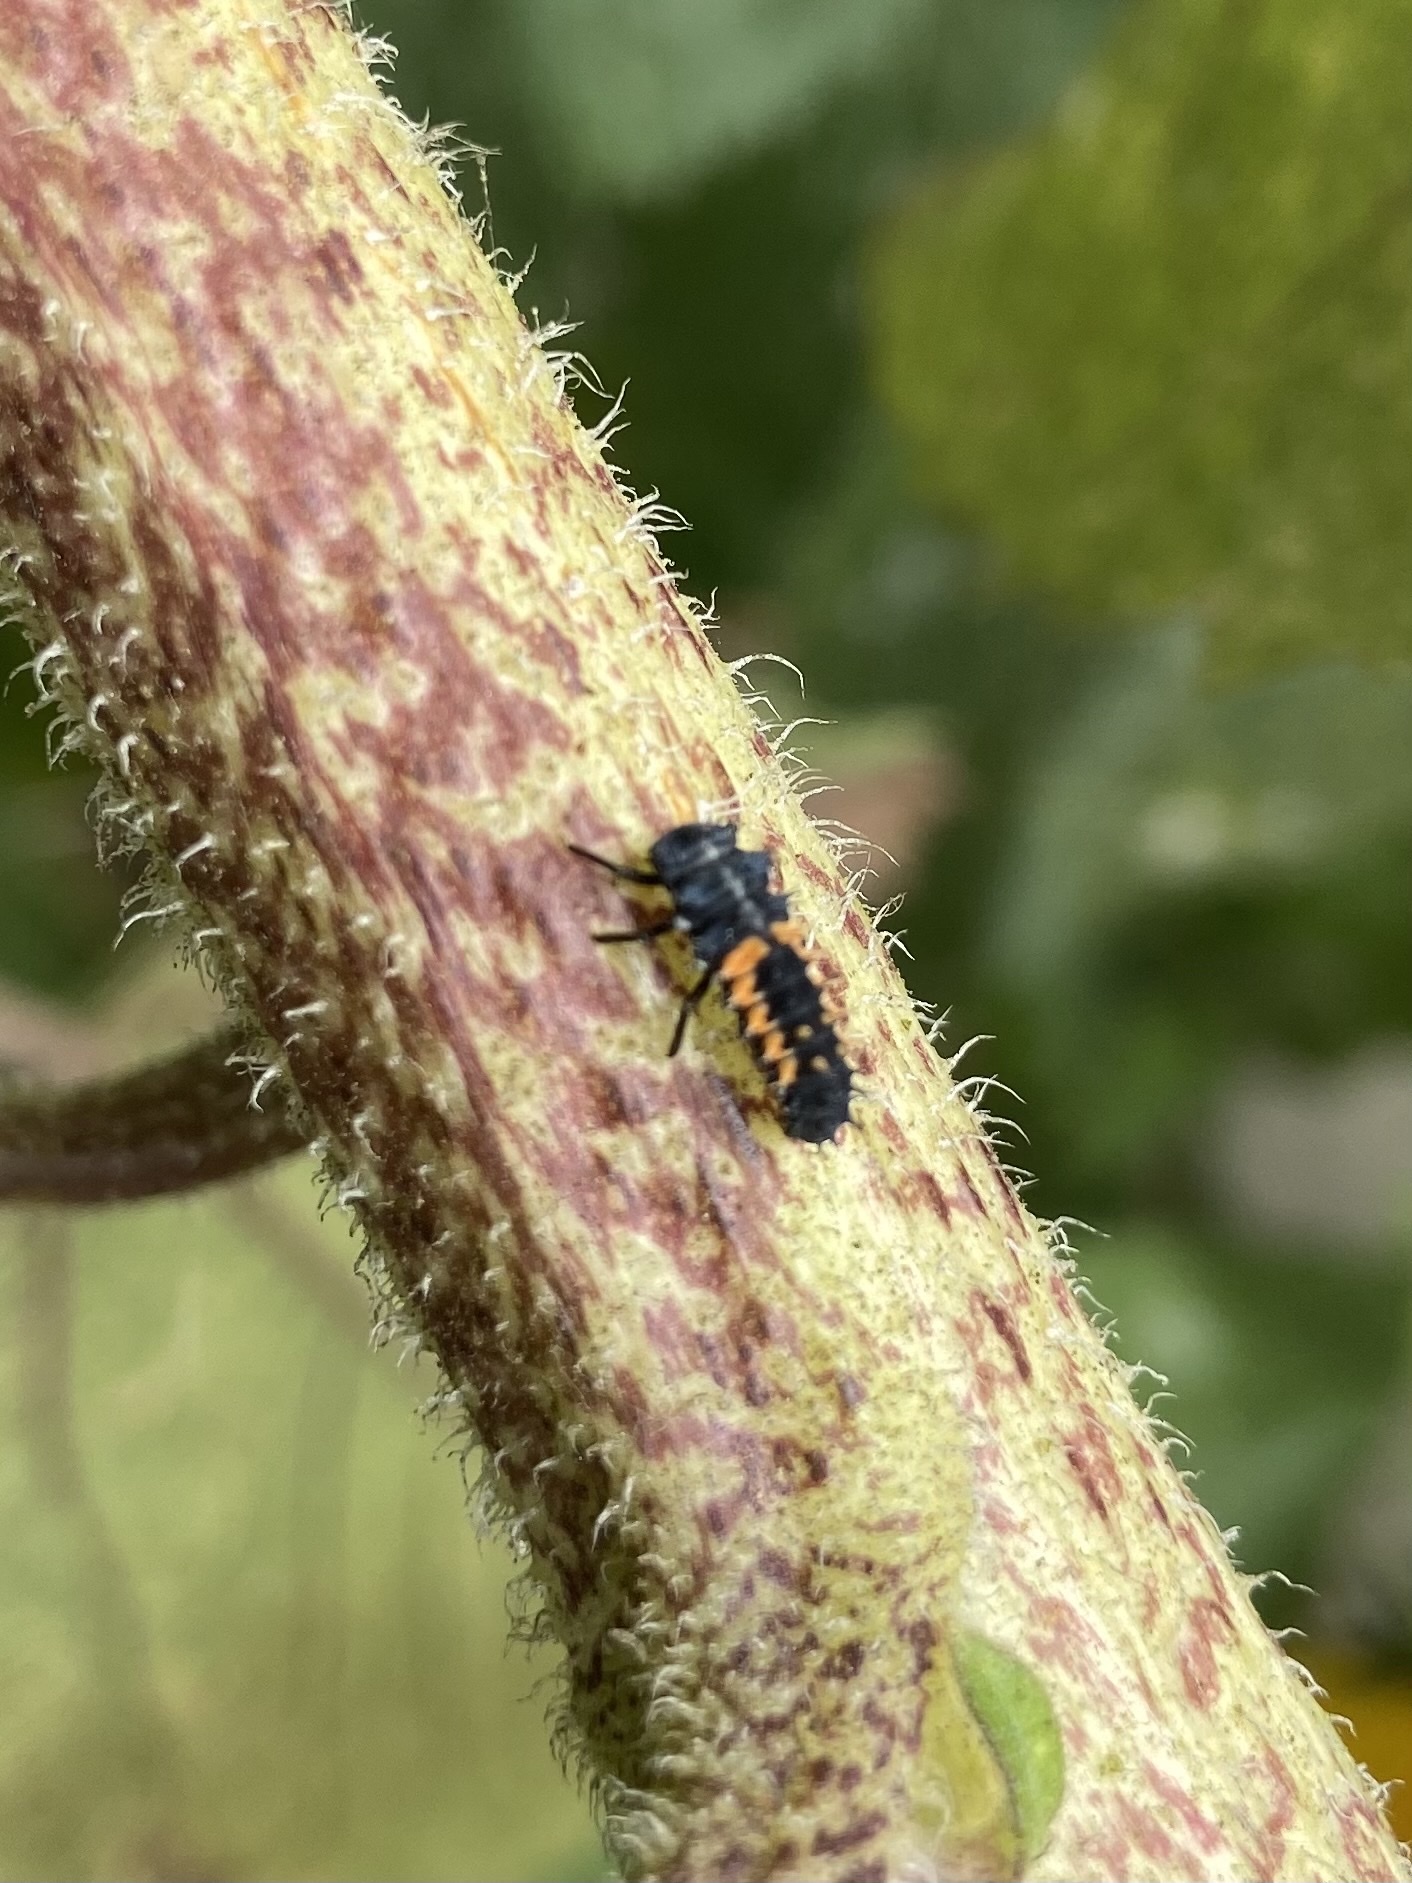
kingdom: Animalia
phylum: Arthropoda
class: Insecta
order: Coleoptera
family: Coccinellidae
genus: Harmonia
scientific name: Harmonia axyridis
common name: Harlequin ladybird
